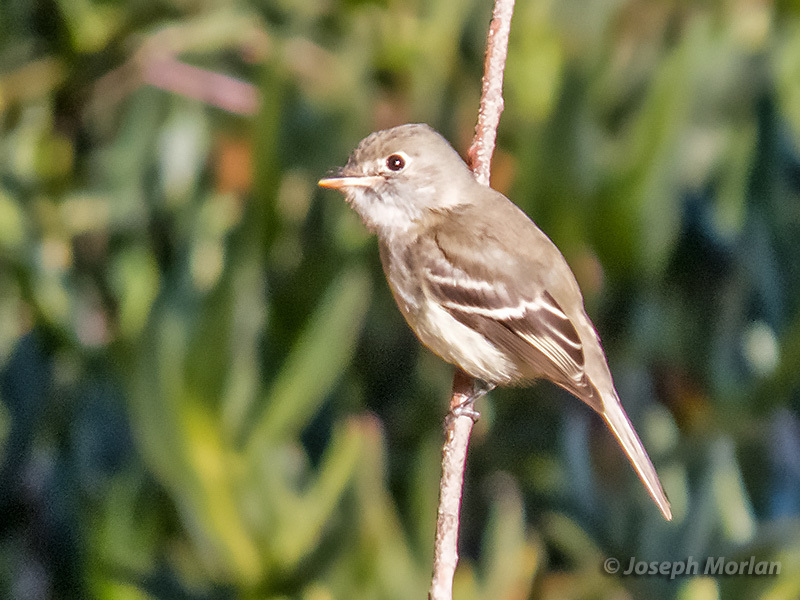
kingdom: Animalia
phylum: Chordata
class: Aves
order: Passeriformes
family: Tyrannidae
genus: Empidonax
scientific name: Empidonax minimus
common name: Least flycatcher
